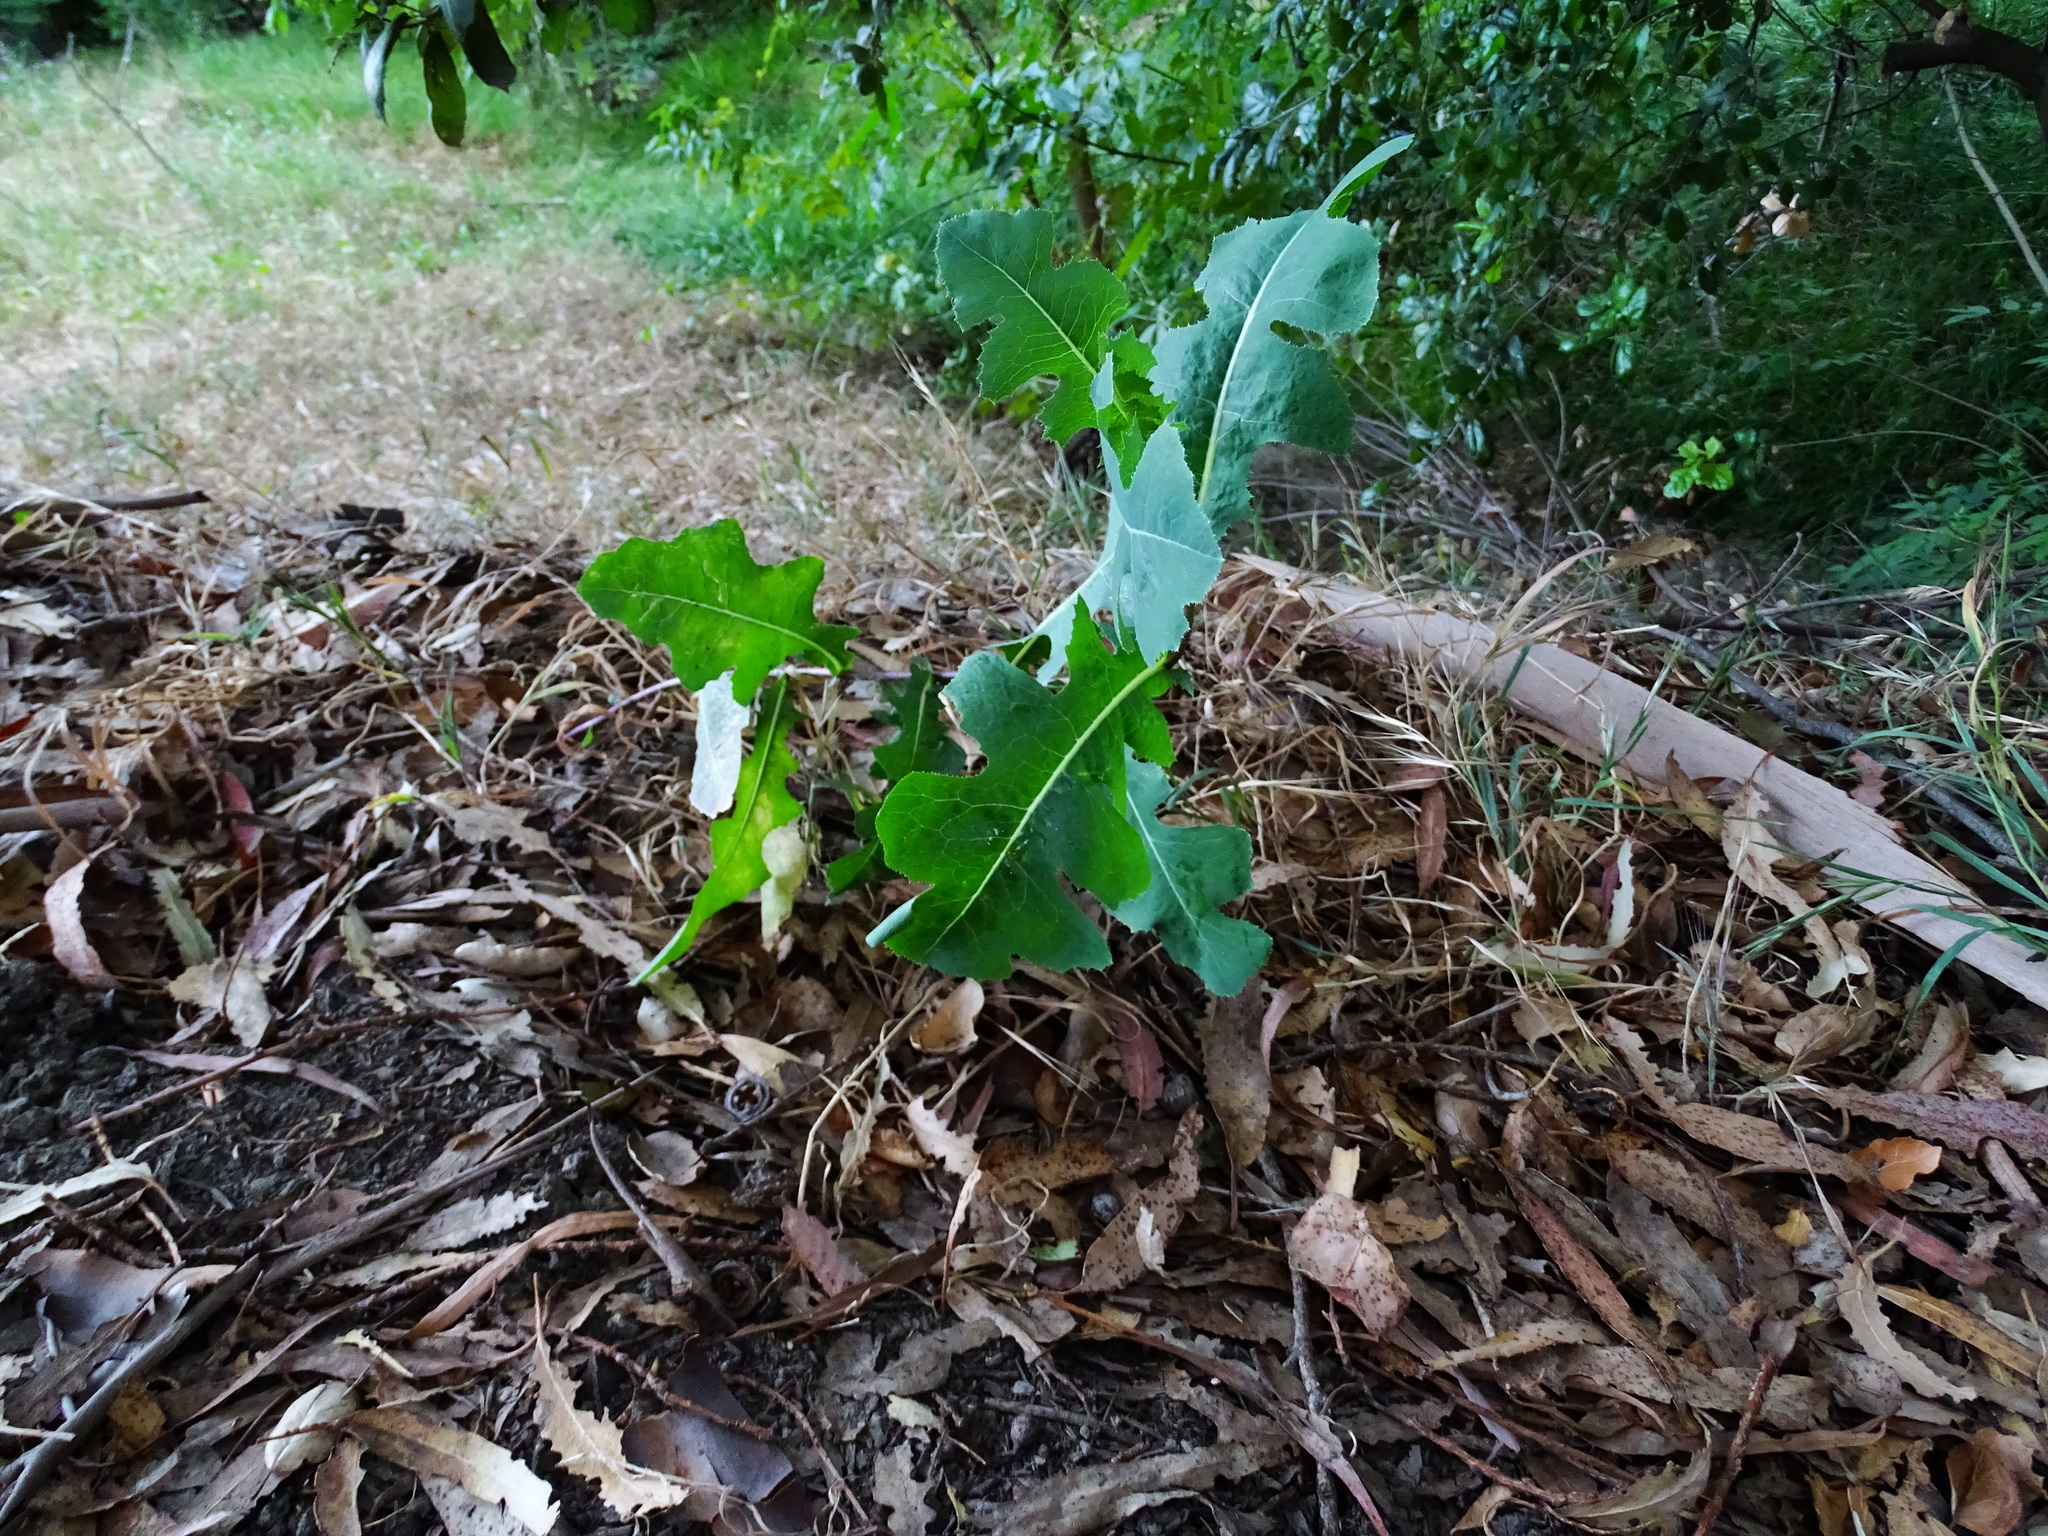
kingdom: Plantae
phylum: Tracheophyta
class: Magnoliopsida
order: Asterales
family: Asteraceae
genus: Lactuca
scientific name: Lactuca serriola
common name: Prickly lettuce
